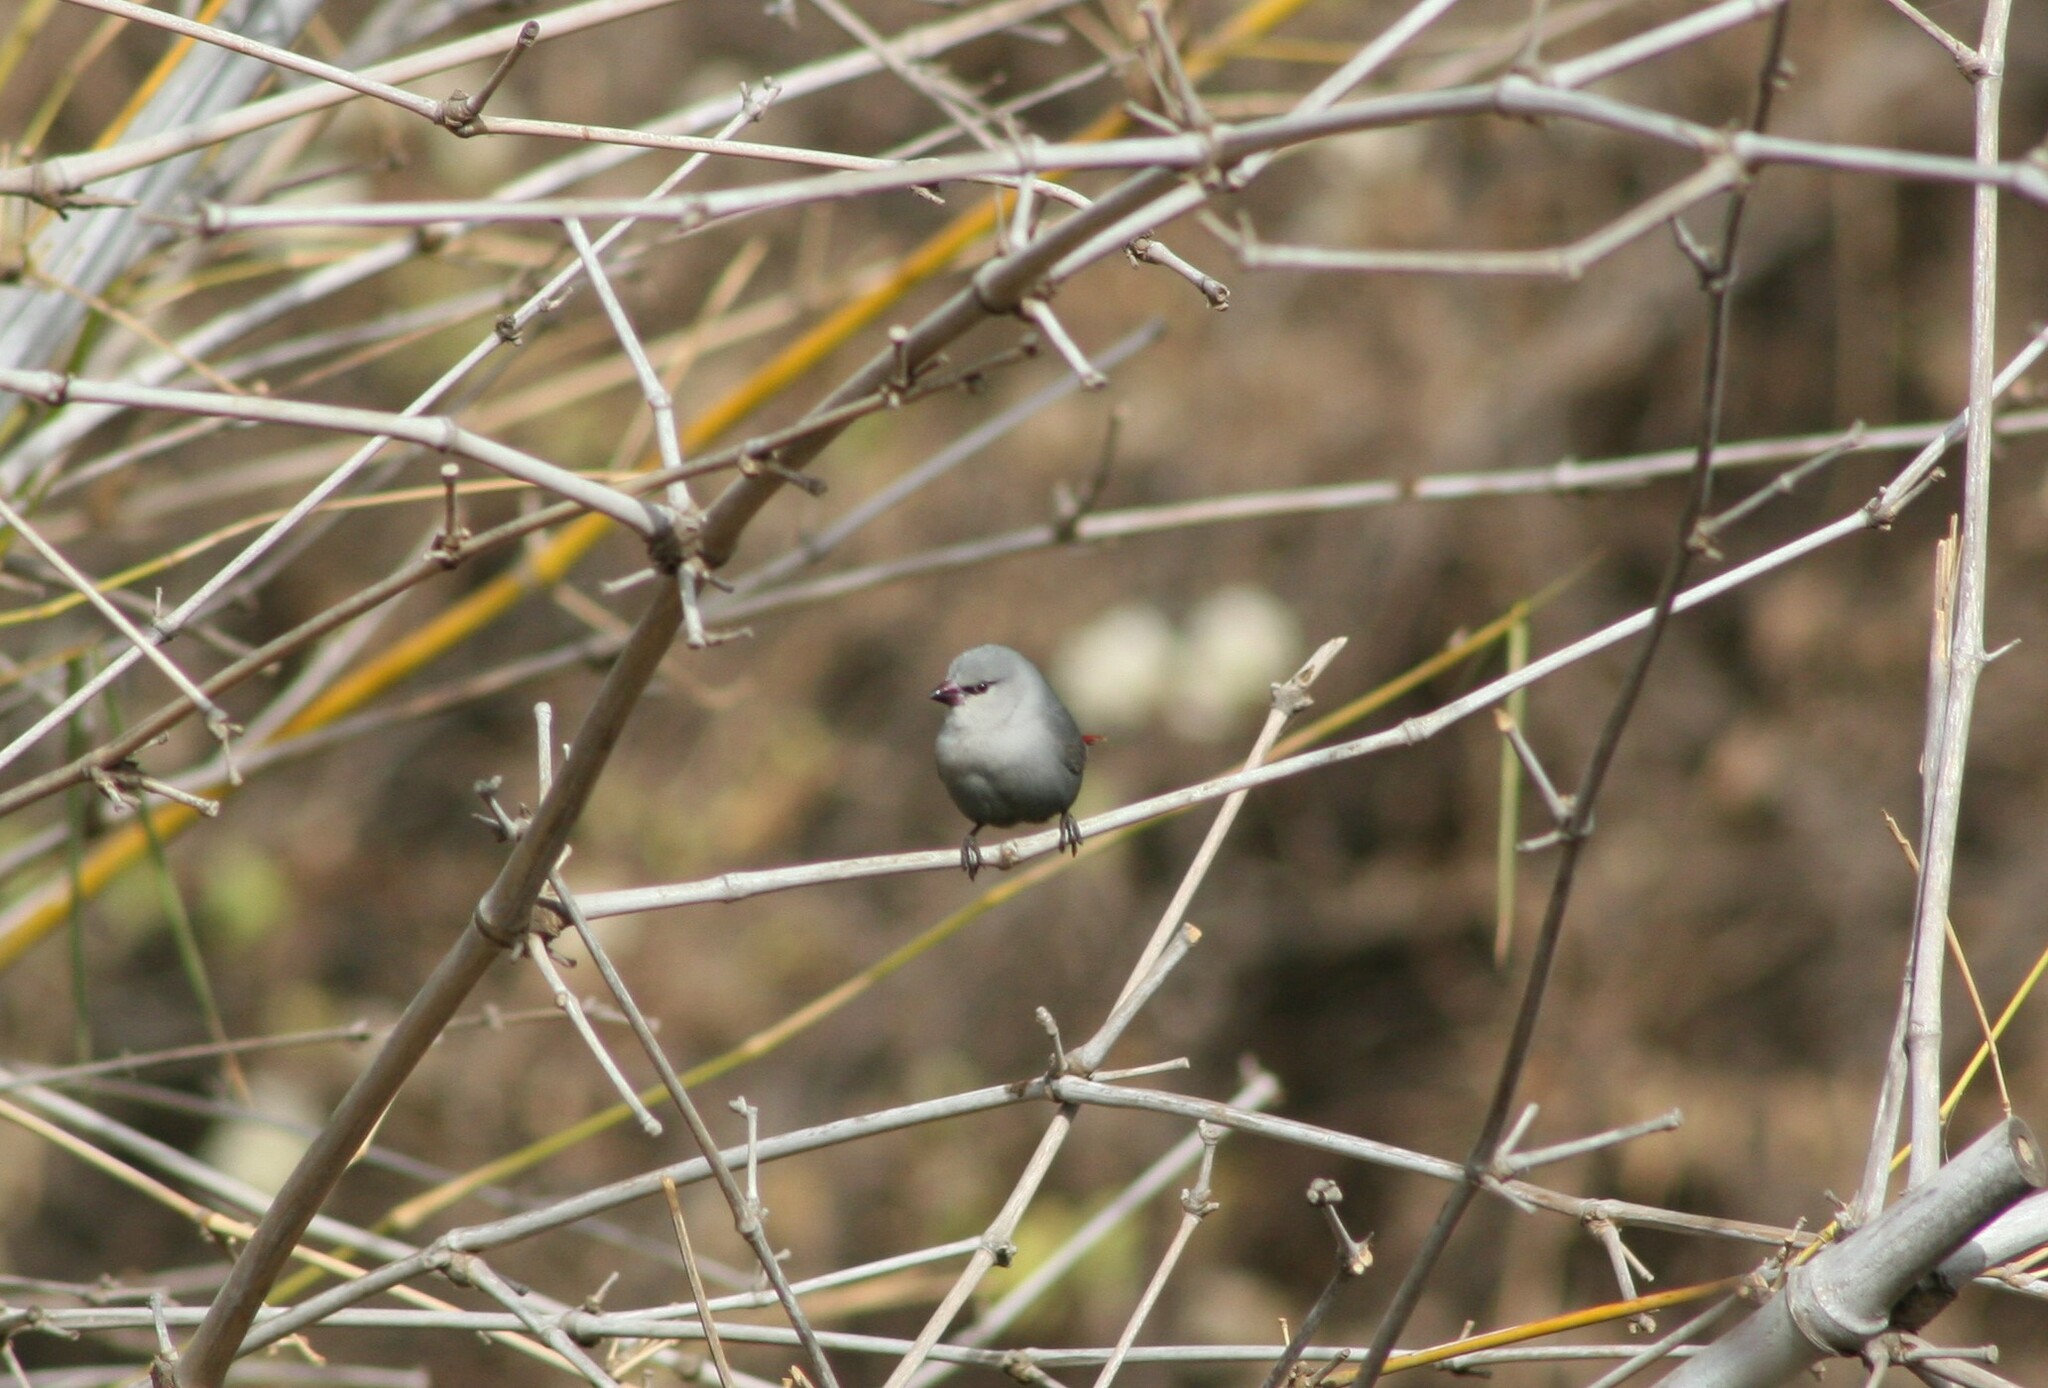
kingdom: Animalia
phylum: Chordata
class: Aves
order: Passeriformes
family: Estrildidae
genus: Estrilda
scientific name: Estrilda caerulescens
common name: Lavender waxbill
